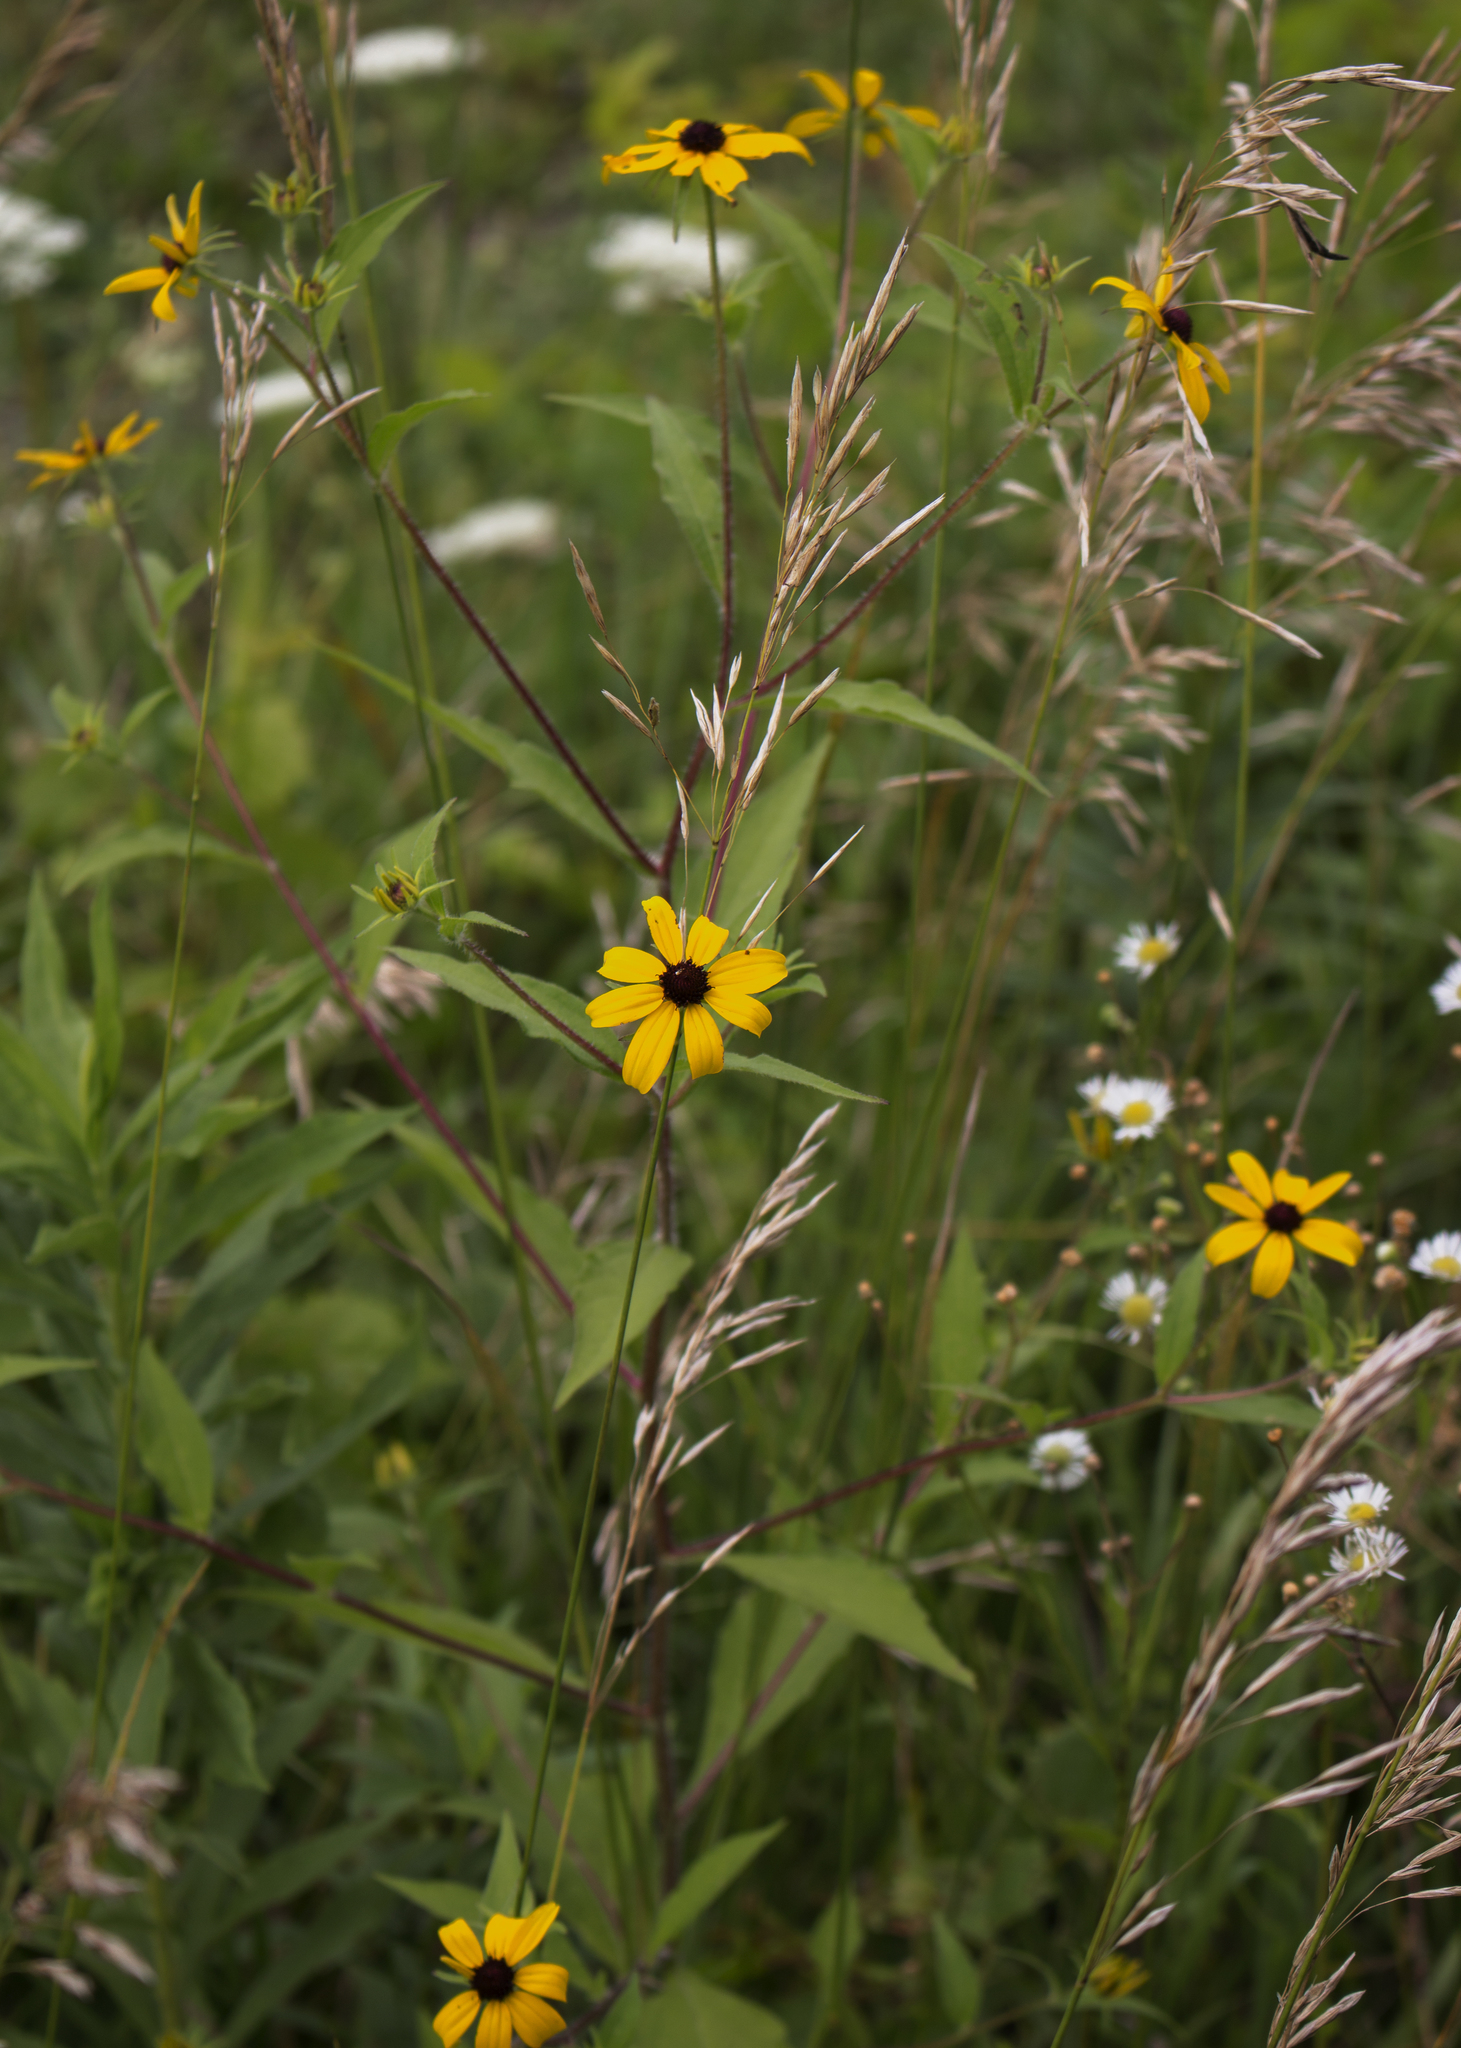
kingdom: Plantae
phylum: Tracheophyta
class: Magnoliopsida
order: Asterales
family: Asteraceae
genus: Rudbeckia
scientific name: Rudbeckia triloba
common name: Thin-leaved coneflower
